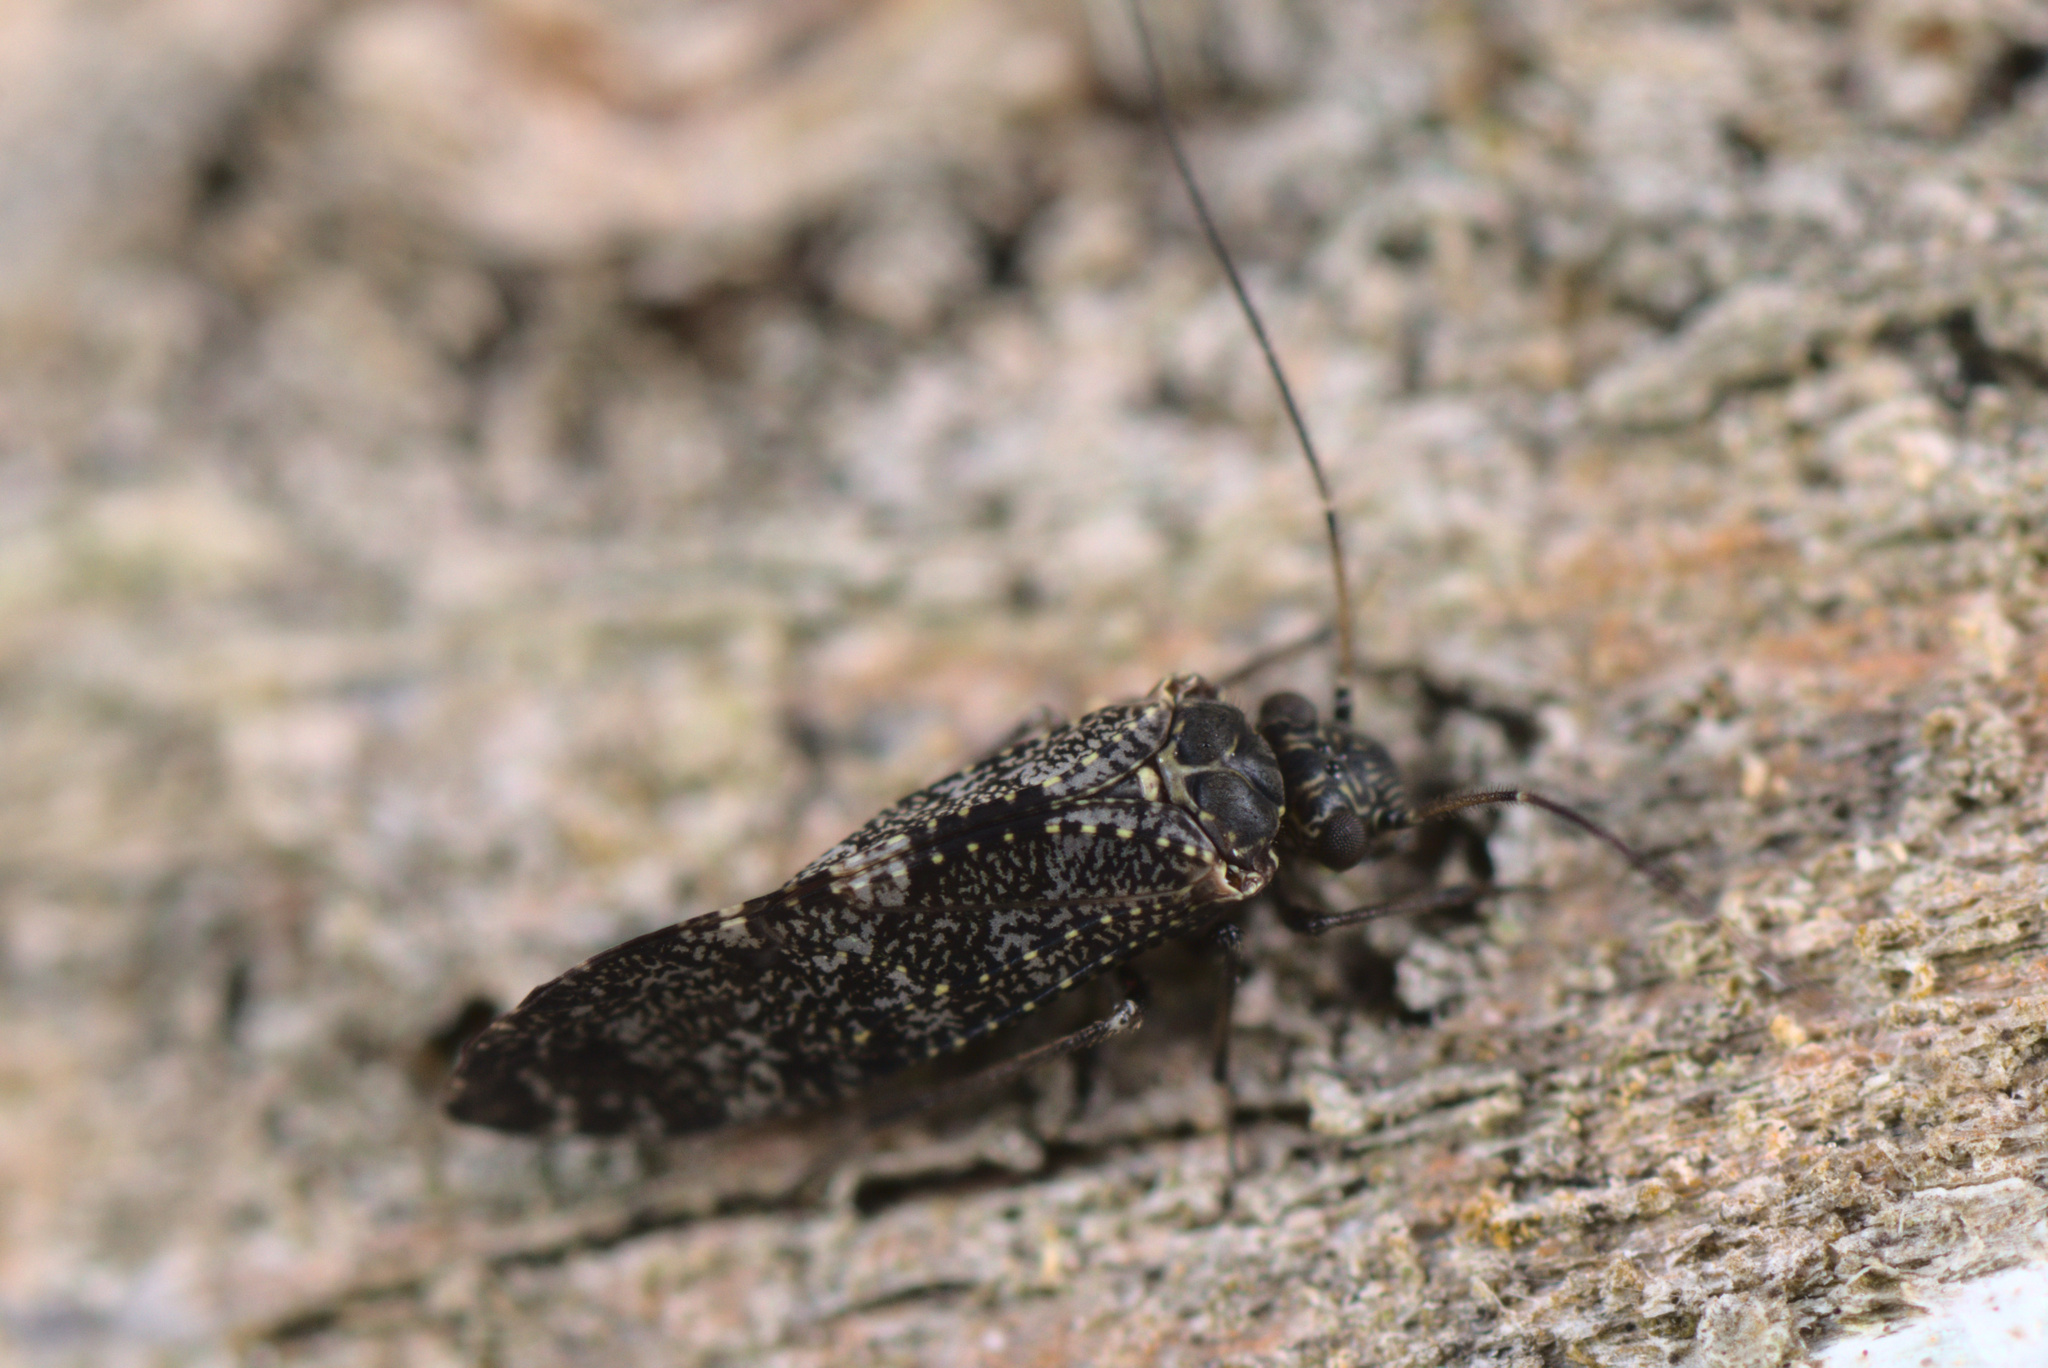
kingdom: Animalia
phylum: Arthropoda
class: Insecta
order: Psocodea
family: Myopsocidae
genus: Nimbopsocus
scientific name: Nimbopsocus australis
